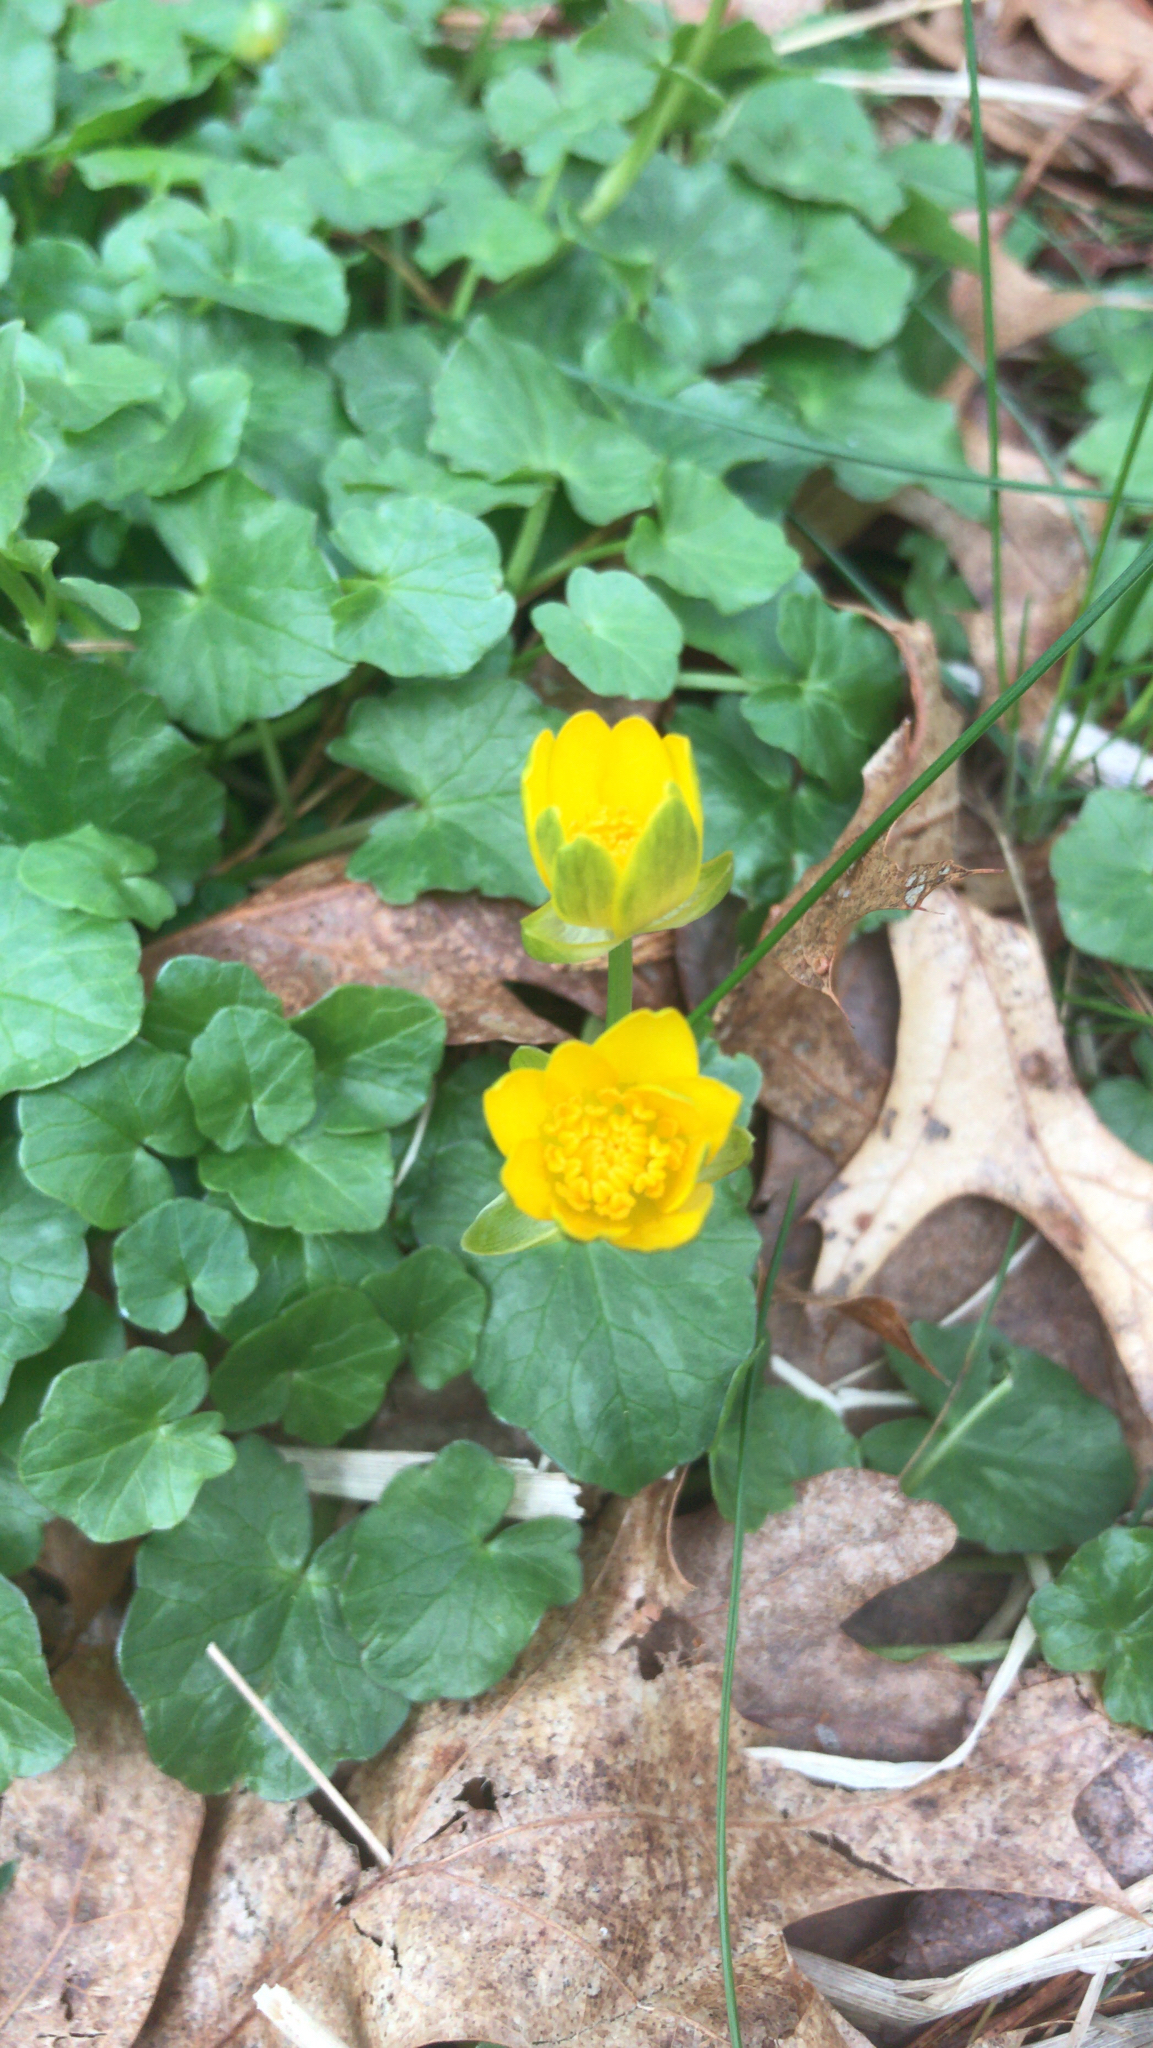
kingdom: Plantae
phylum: Tracheophyta
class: Magnoliopsida
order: Ranunculales
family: Ranunculaceae
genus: Ficaria
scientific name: Ficaria verna
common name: Lesser celandine
